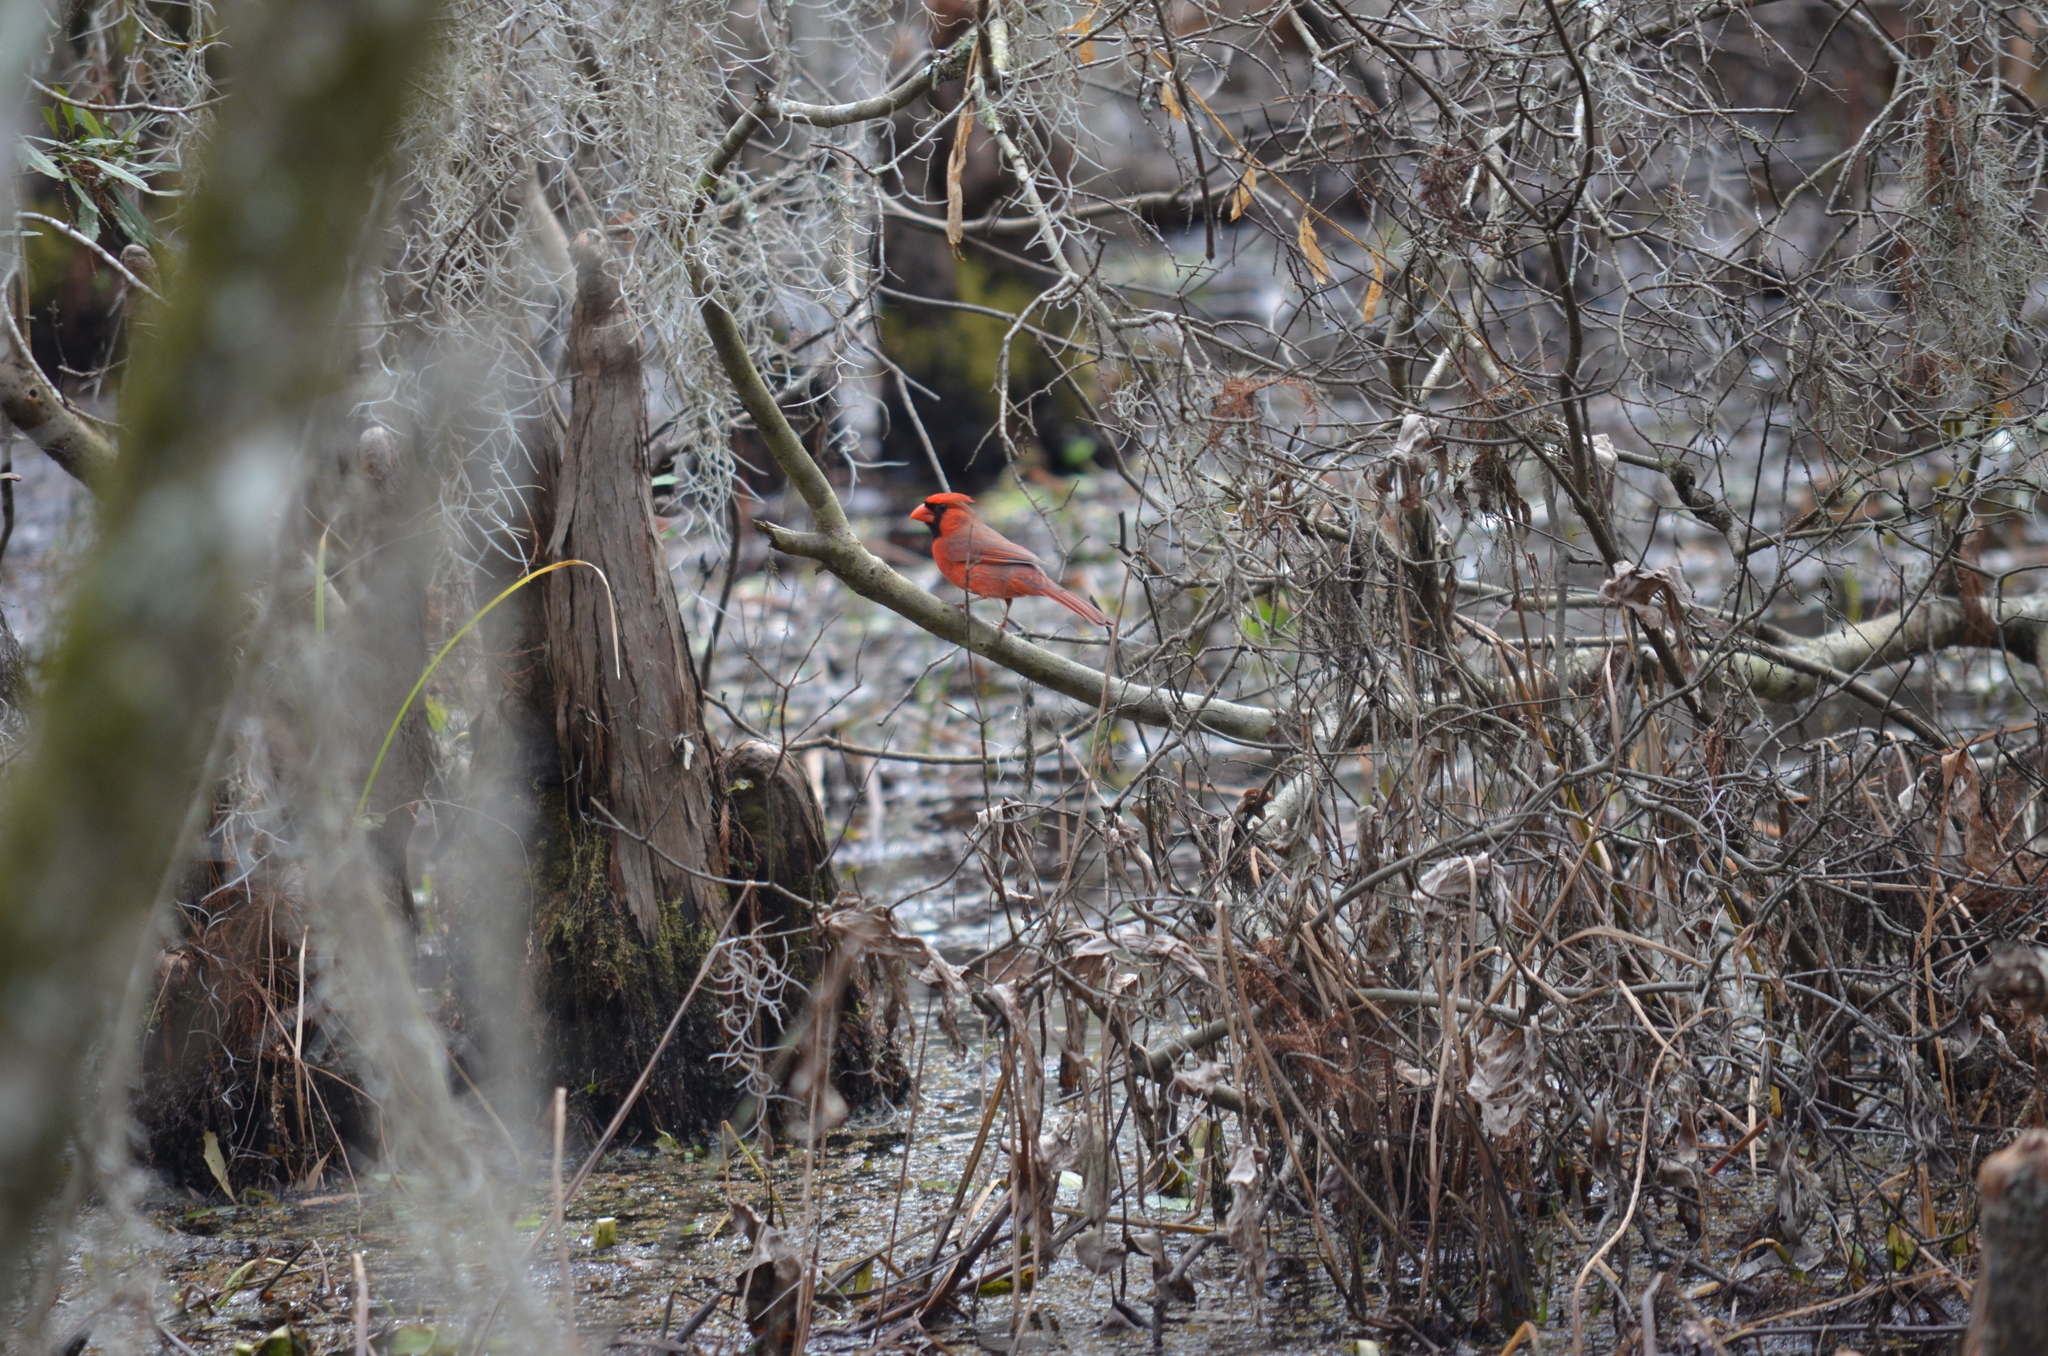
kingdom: Animalia
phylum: Chordata
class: Aves
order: Passeriformes
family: Cardinalidae
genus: Cardinalis
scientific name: Cardinalis cardinalis
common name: Northern cardinal
